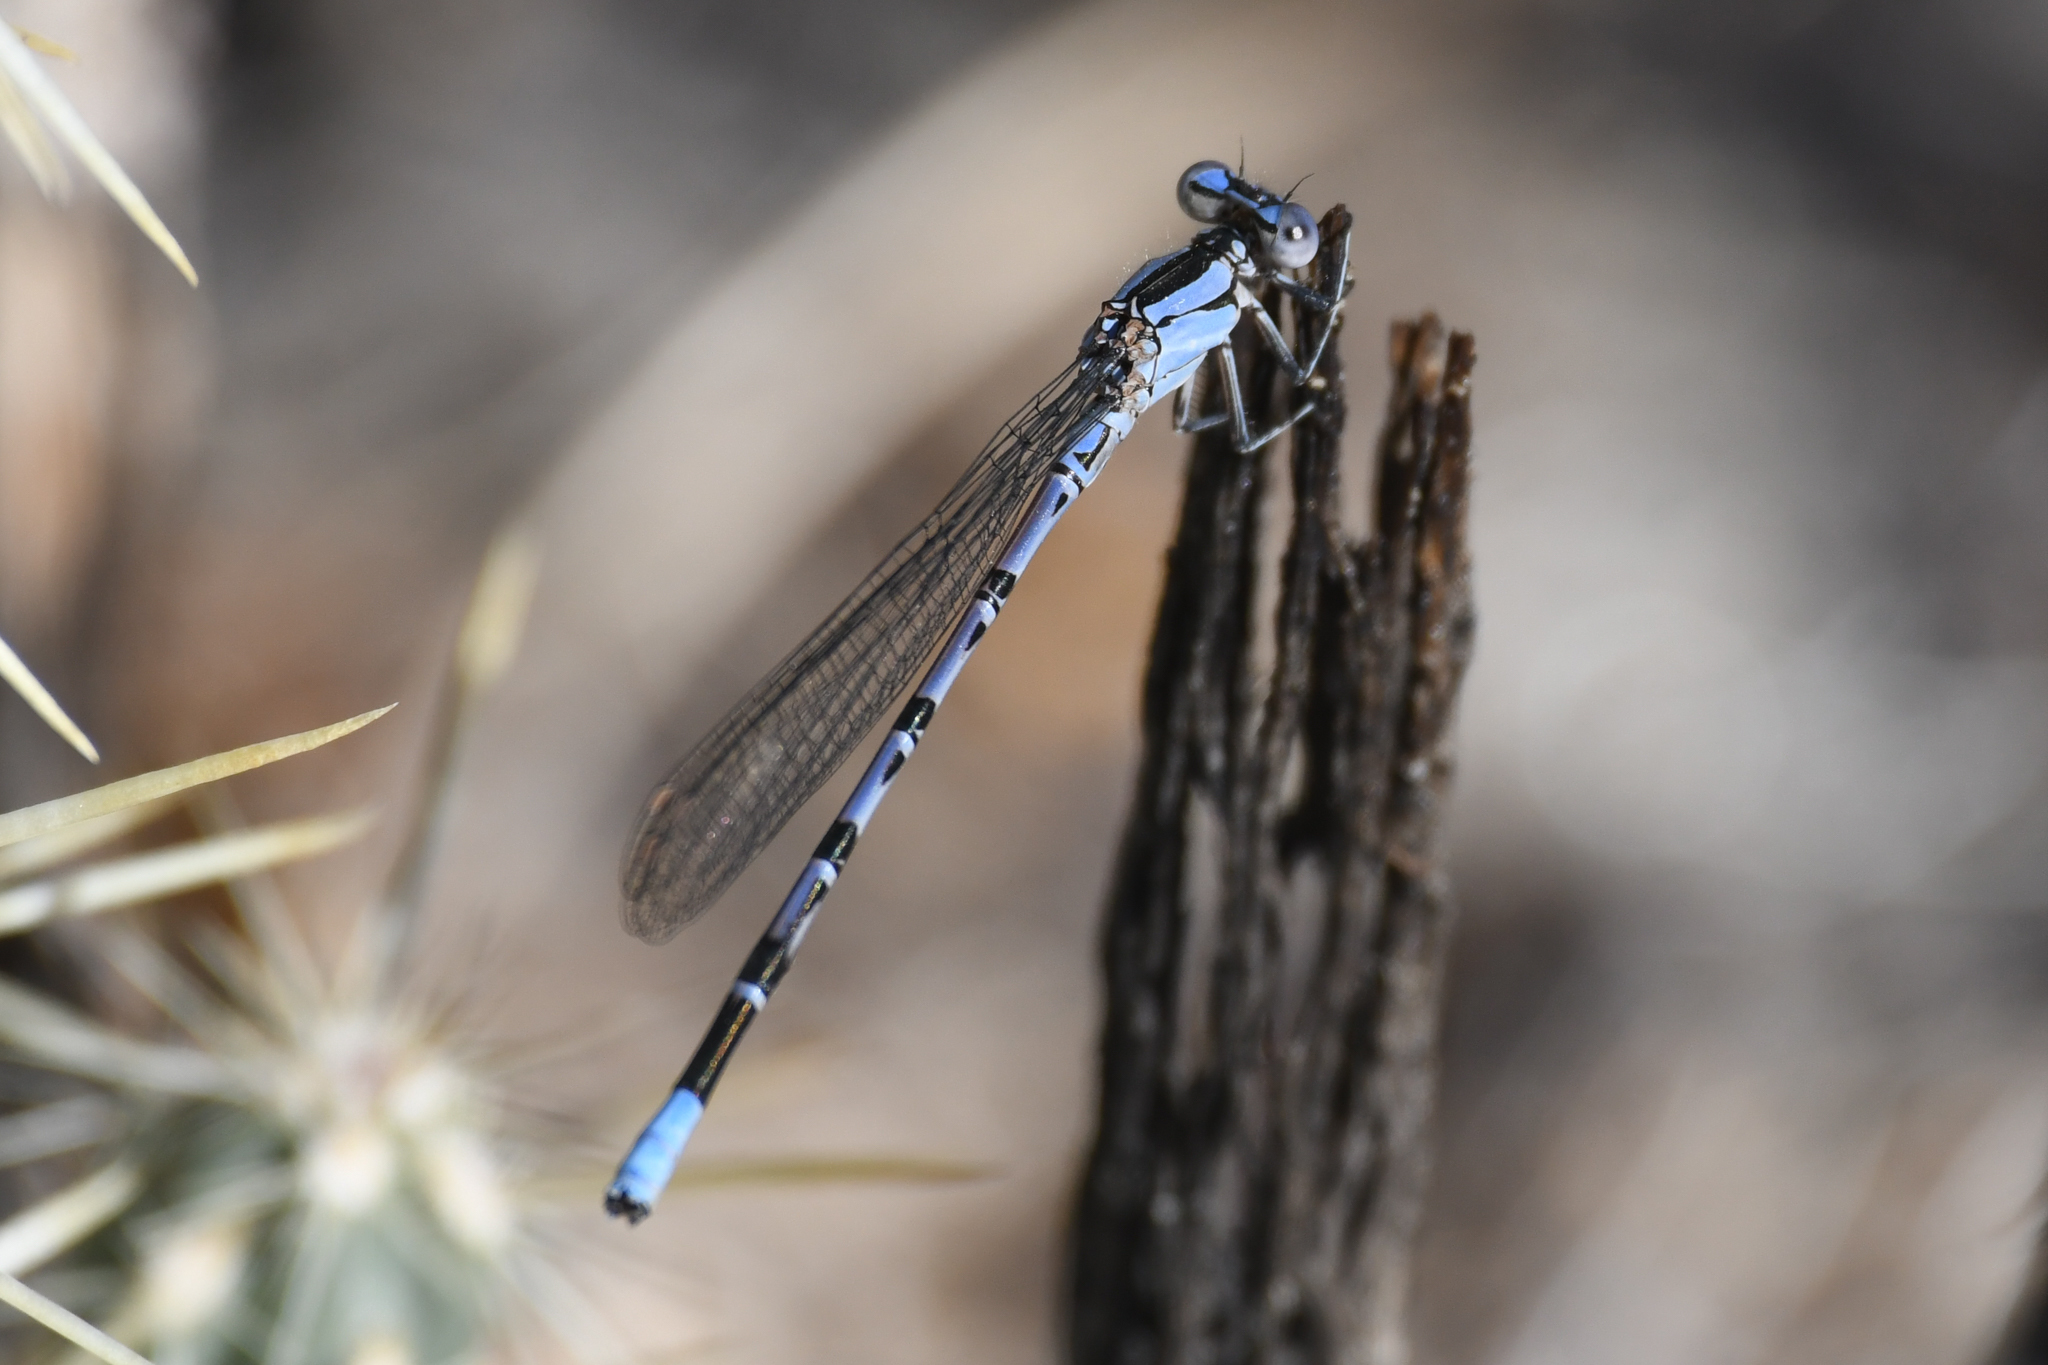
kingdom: Animalia
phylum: Arthropoda
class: Insecta
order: Odonata
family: Coenagrionidae
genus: Argia
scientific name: Argia vivida
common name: Vivid dancer
